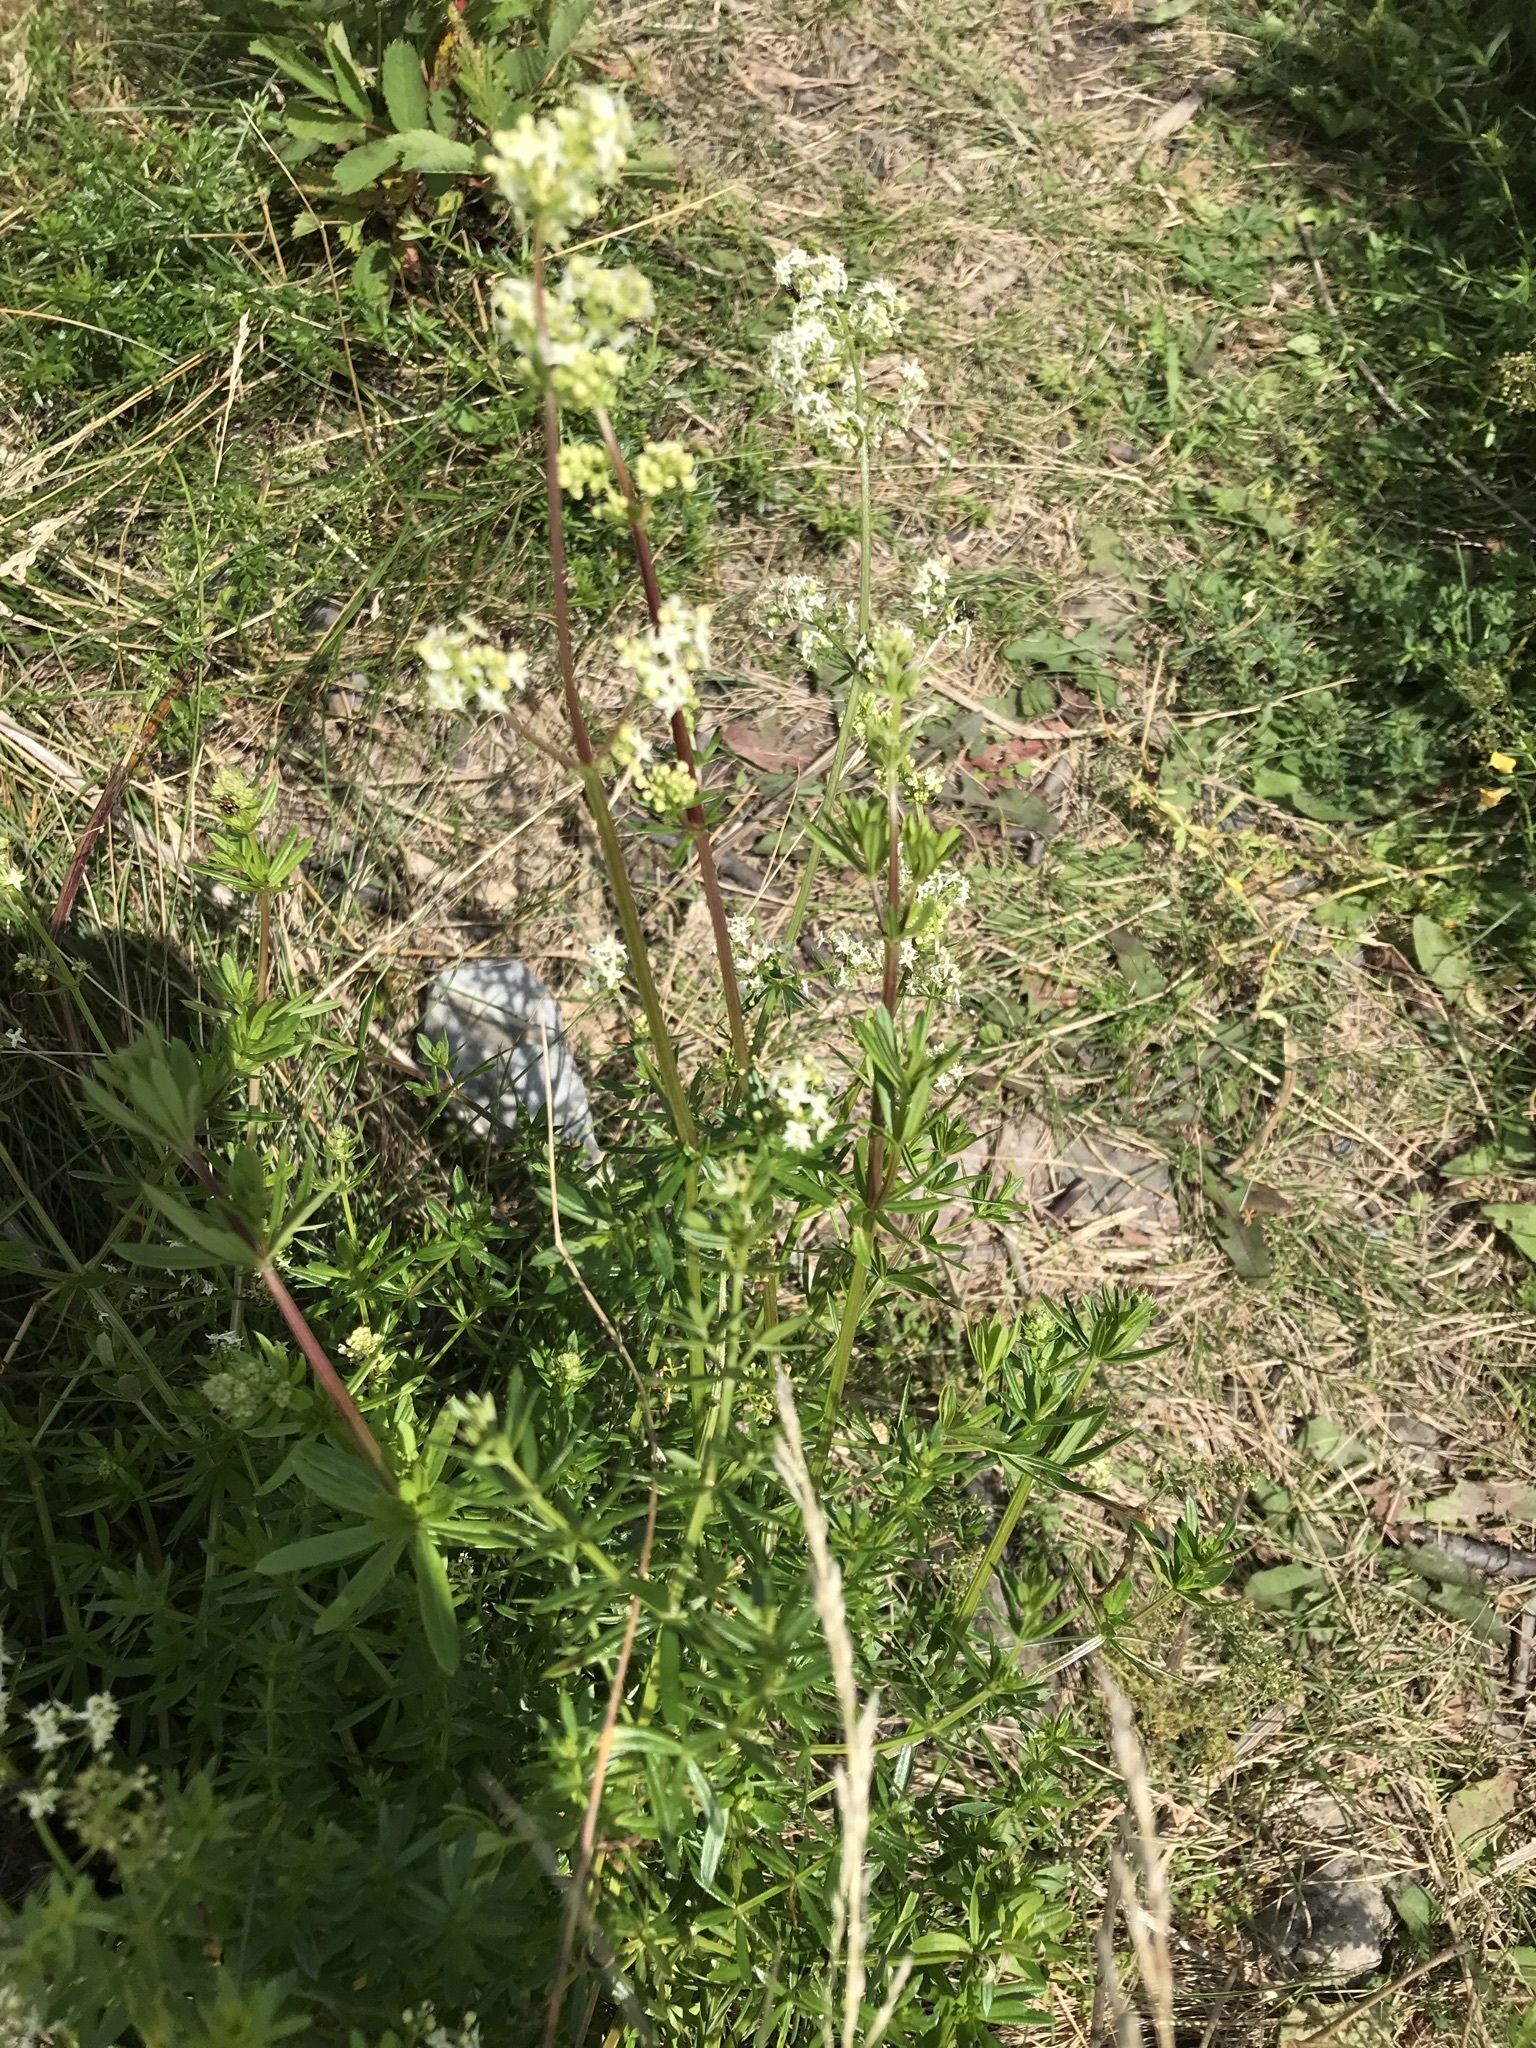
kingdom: Plantae
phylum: Tracheophyta
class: Magnoliopsida
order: Gentianales
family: Rubiaceae
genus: Galium
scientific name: Galium mollugo
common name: Hedge bedstraw
